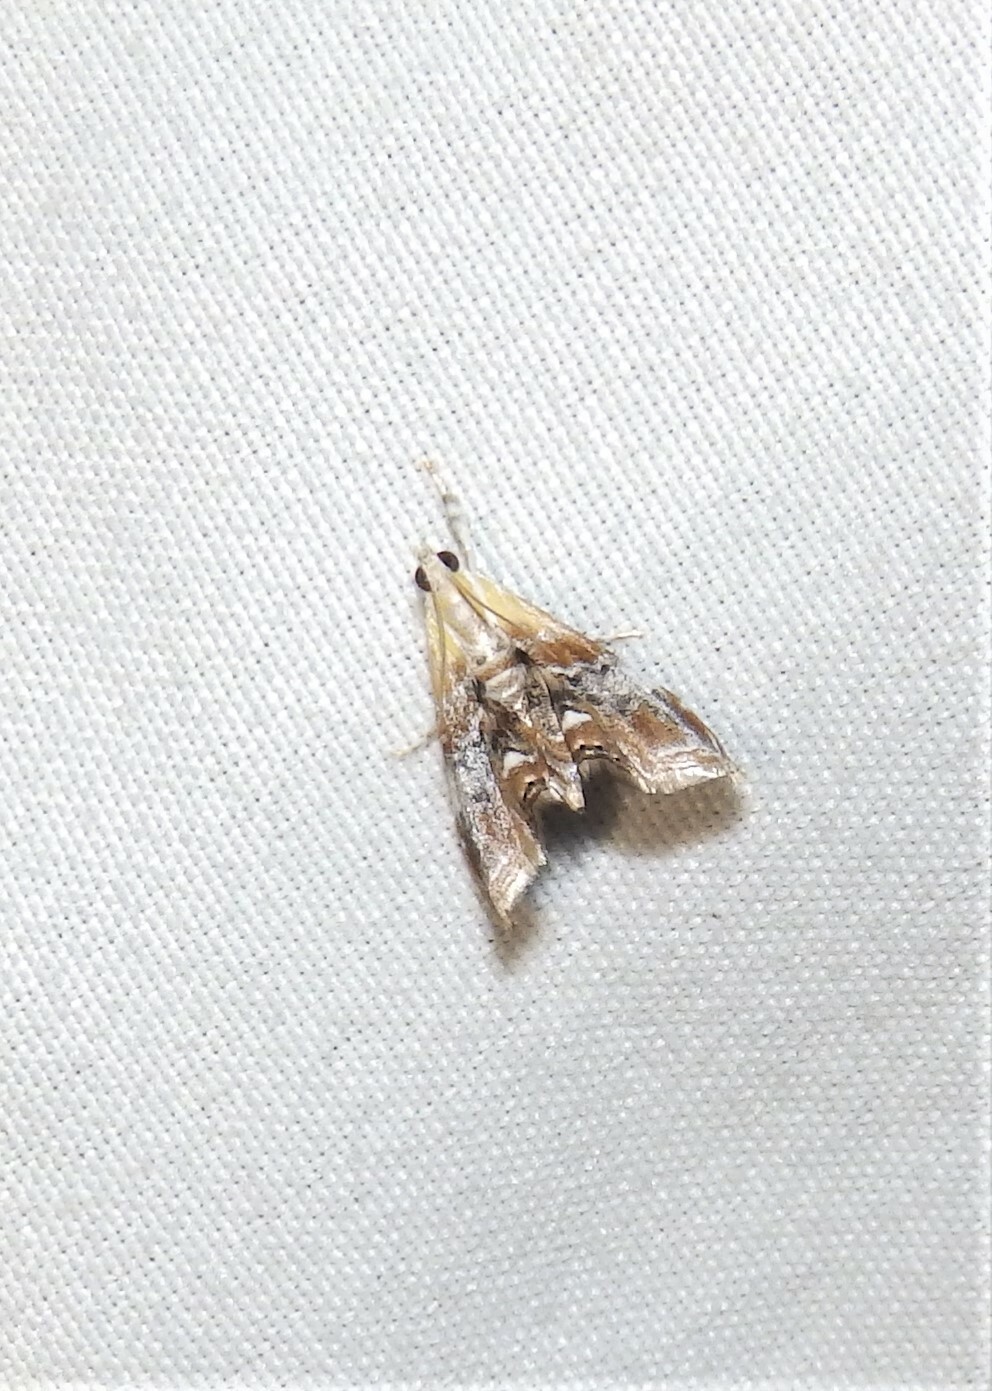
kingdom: Animalia
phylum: Arthropoda
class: Insecta
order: Lepidoptera
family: Crambidae
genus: Dicymolomia
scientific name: Dicymolomia julianalis
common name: Julia's dicymolomia moth
